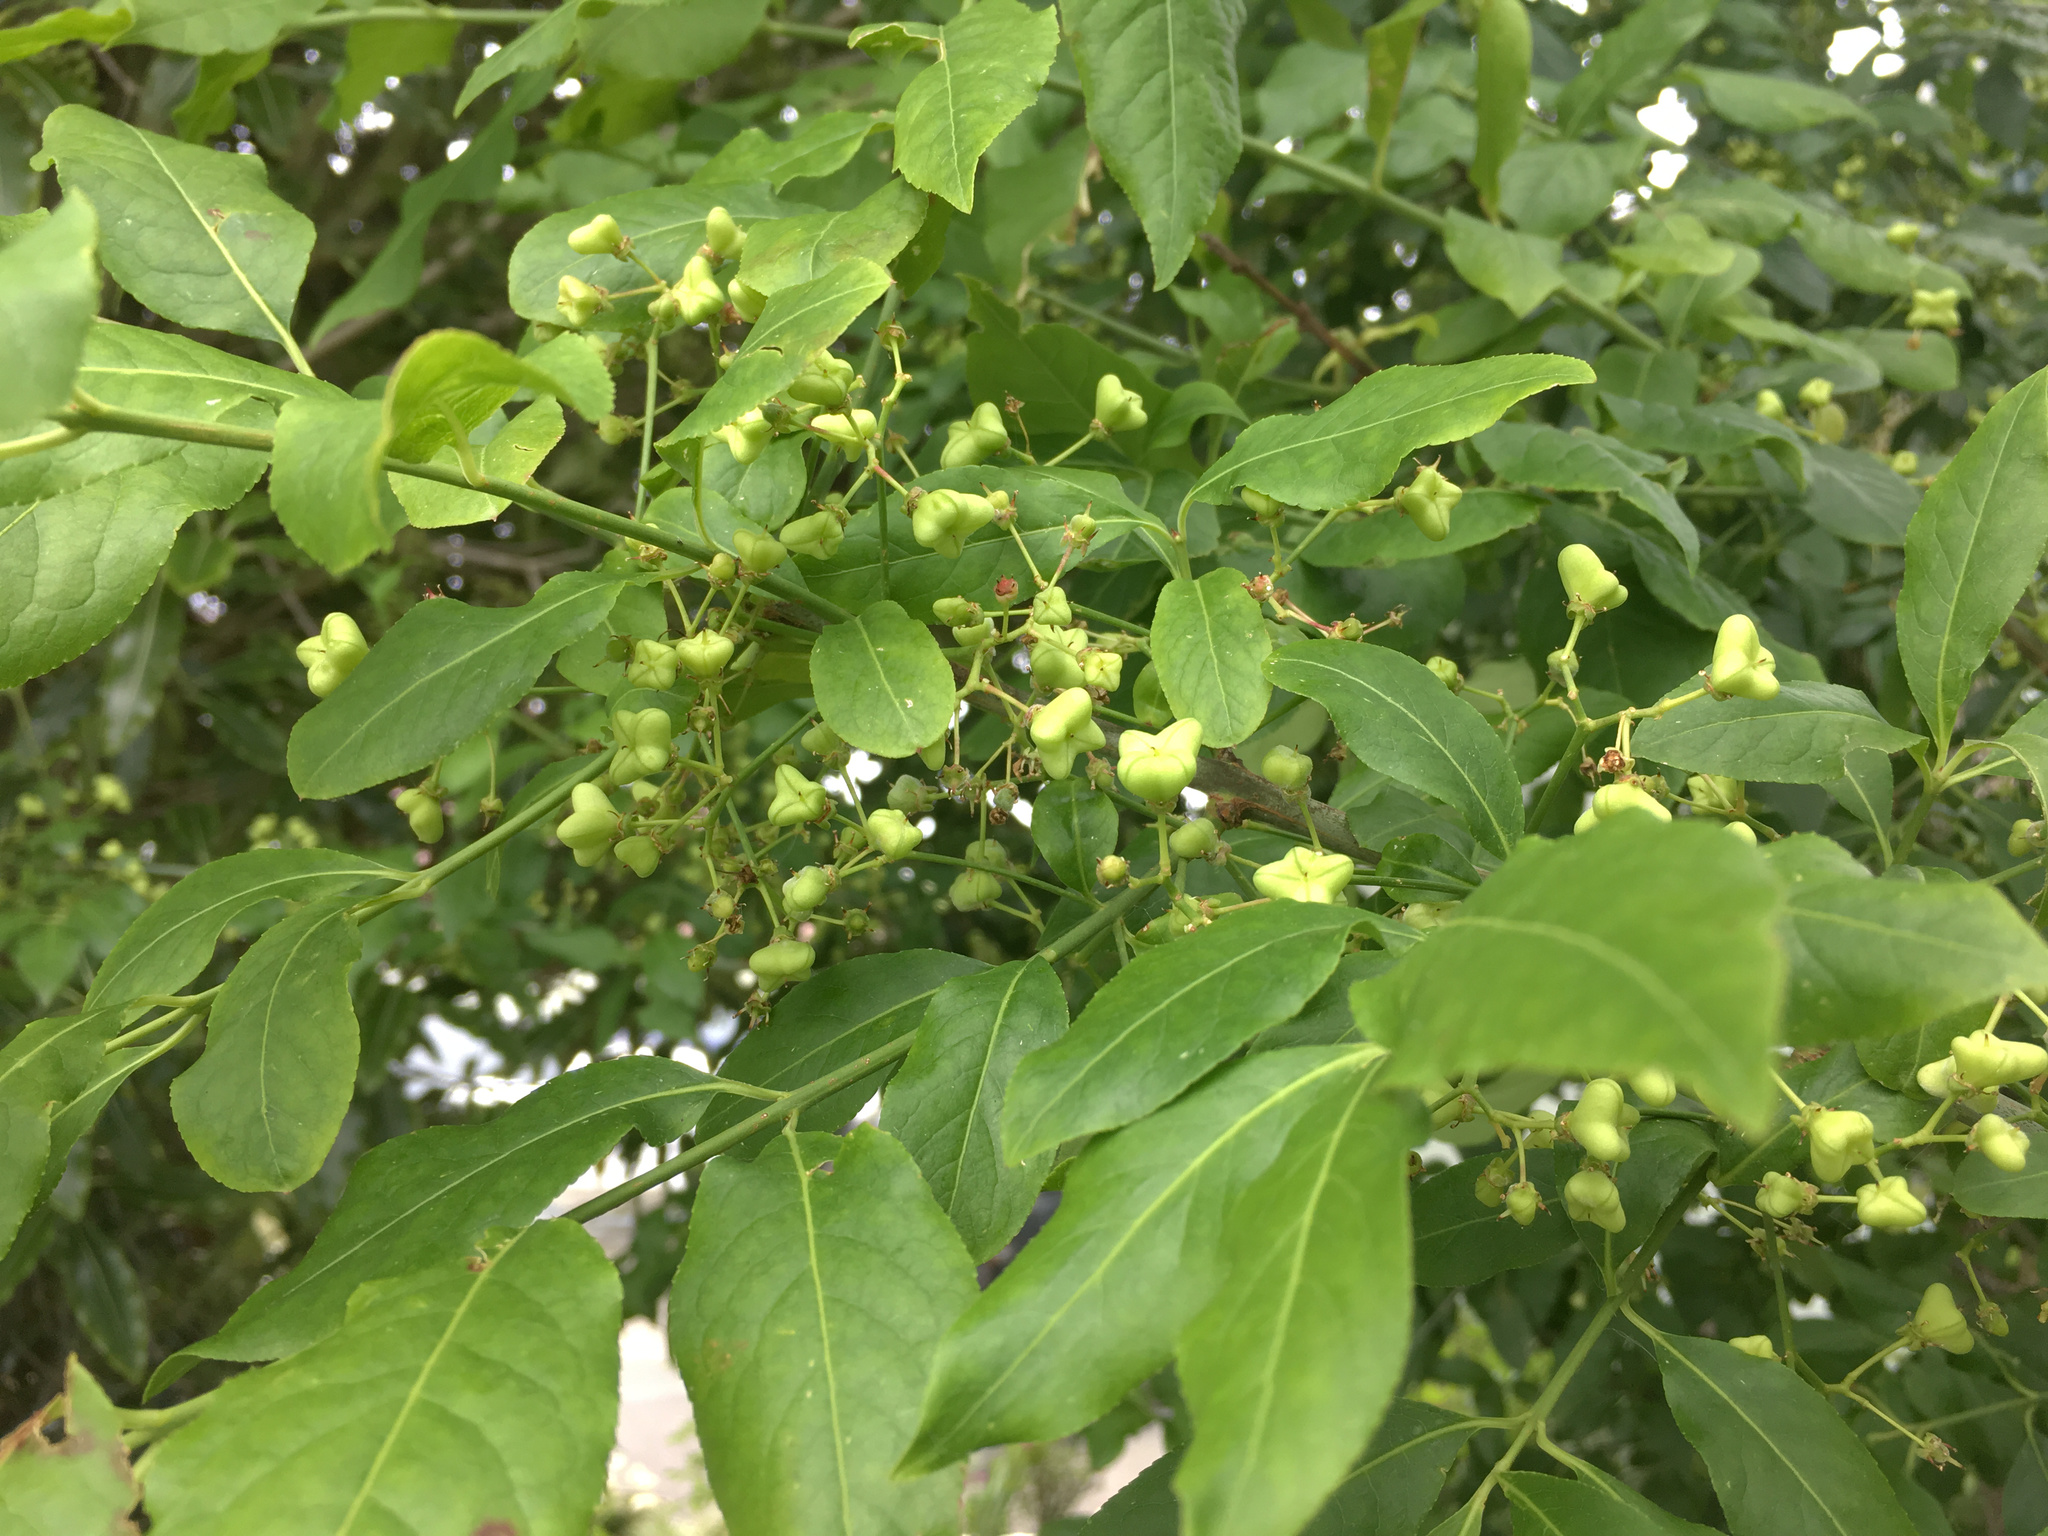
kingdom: Plantae
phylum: Tracheophyta
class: Magnoliopsida
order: Celastrales
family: Celastraceae
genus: Euonymus
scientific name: Euonymus europaeus
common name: Spindle
